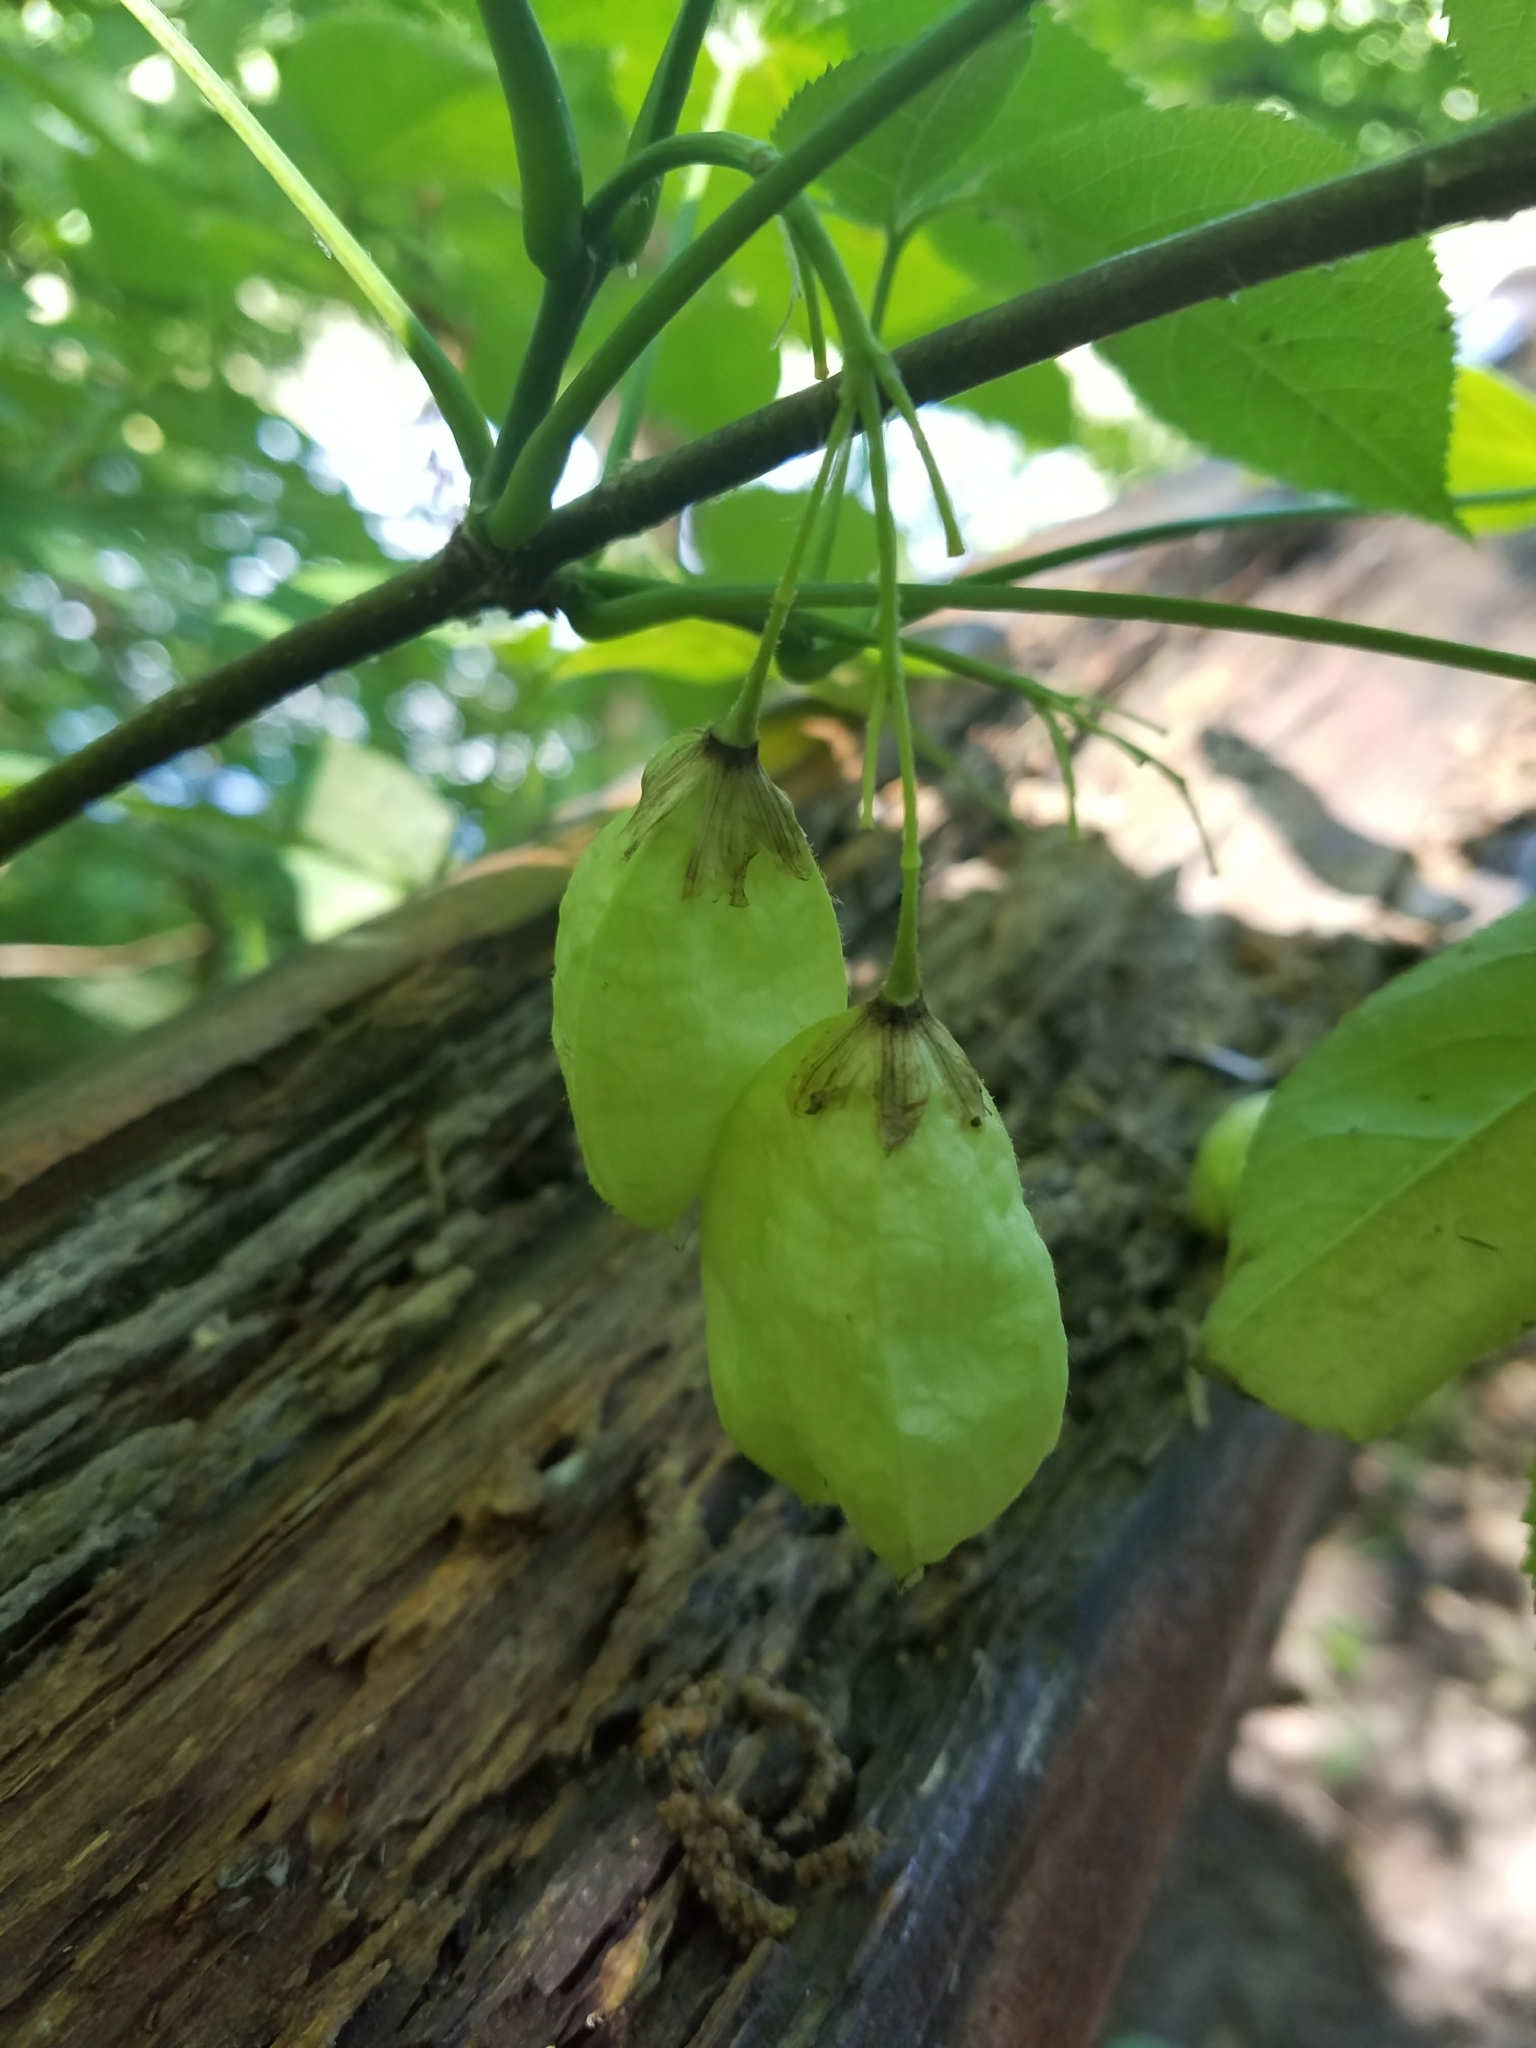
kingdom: Plantae
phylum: Tracheophyta
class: Magnoliopsida
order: Crossosomatales
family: Staphyleaceae
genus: Staphylea
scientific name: Staphylea trifolia
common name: American bladdernut
